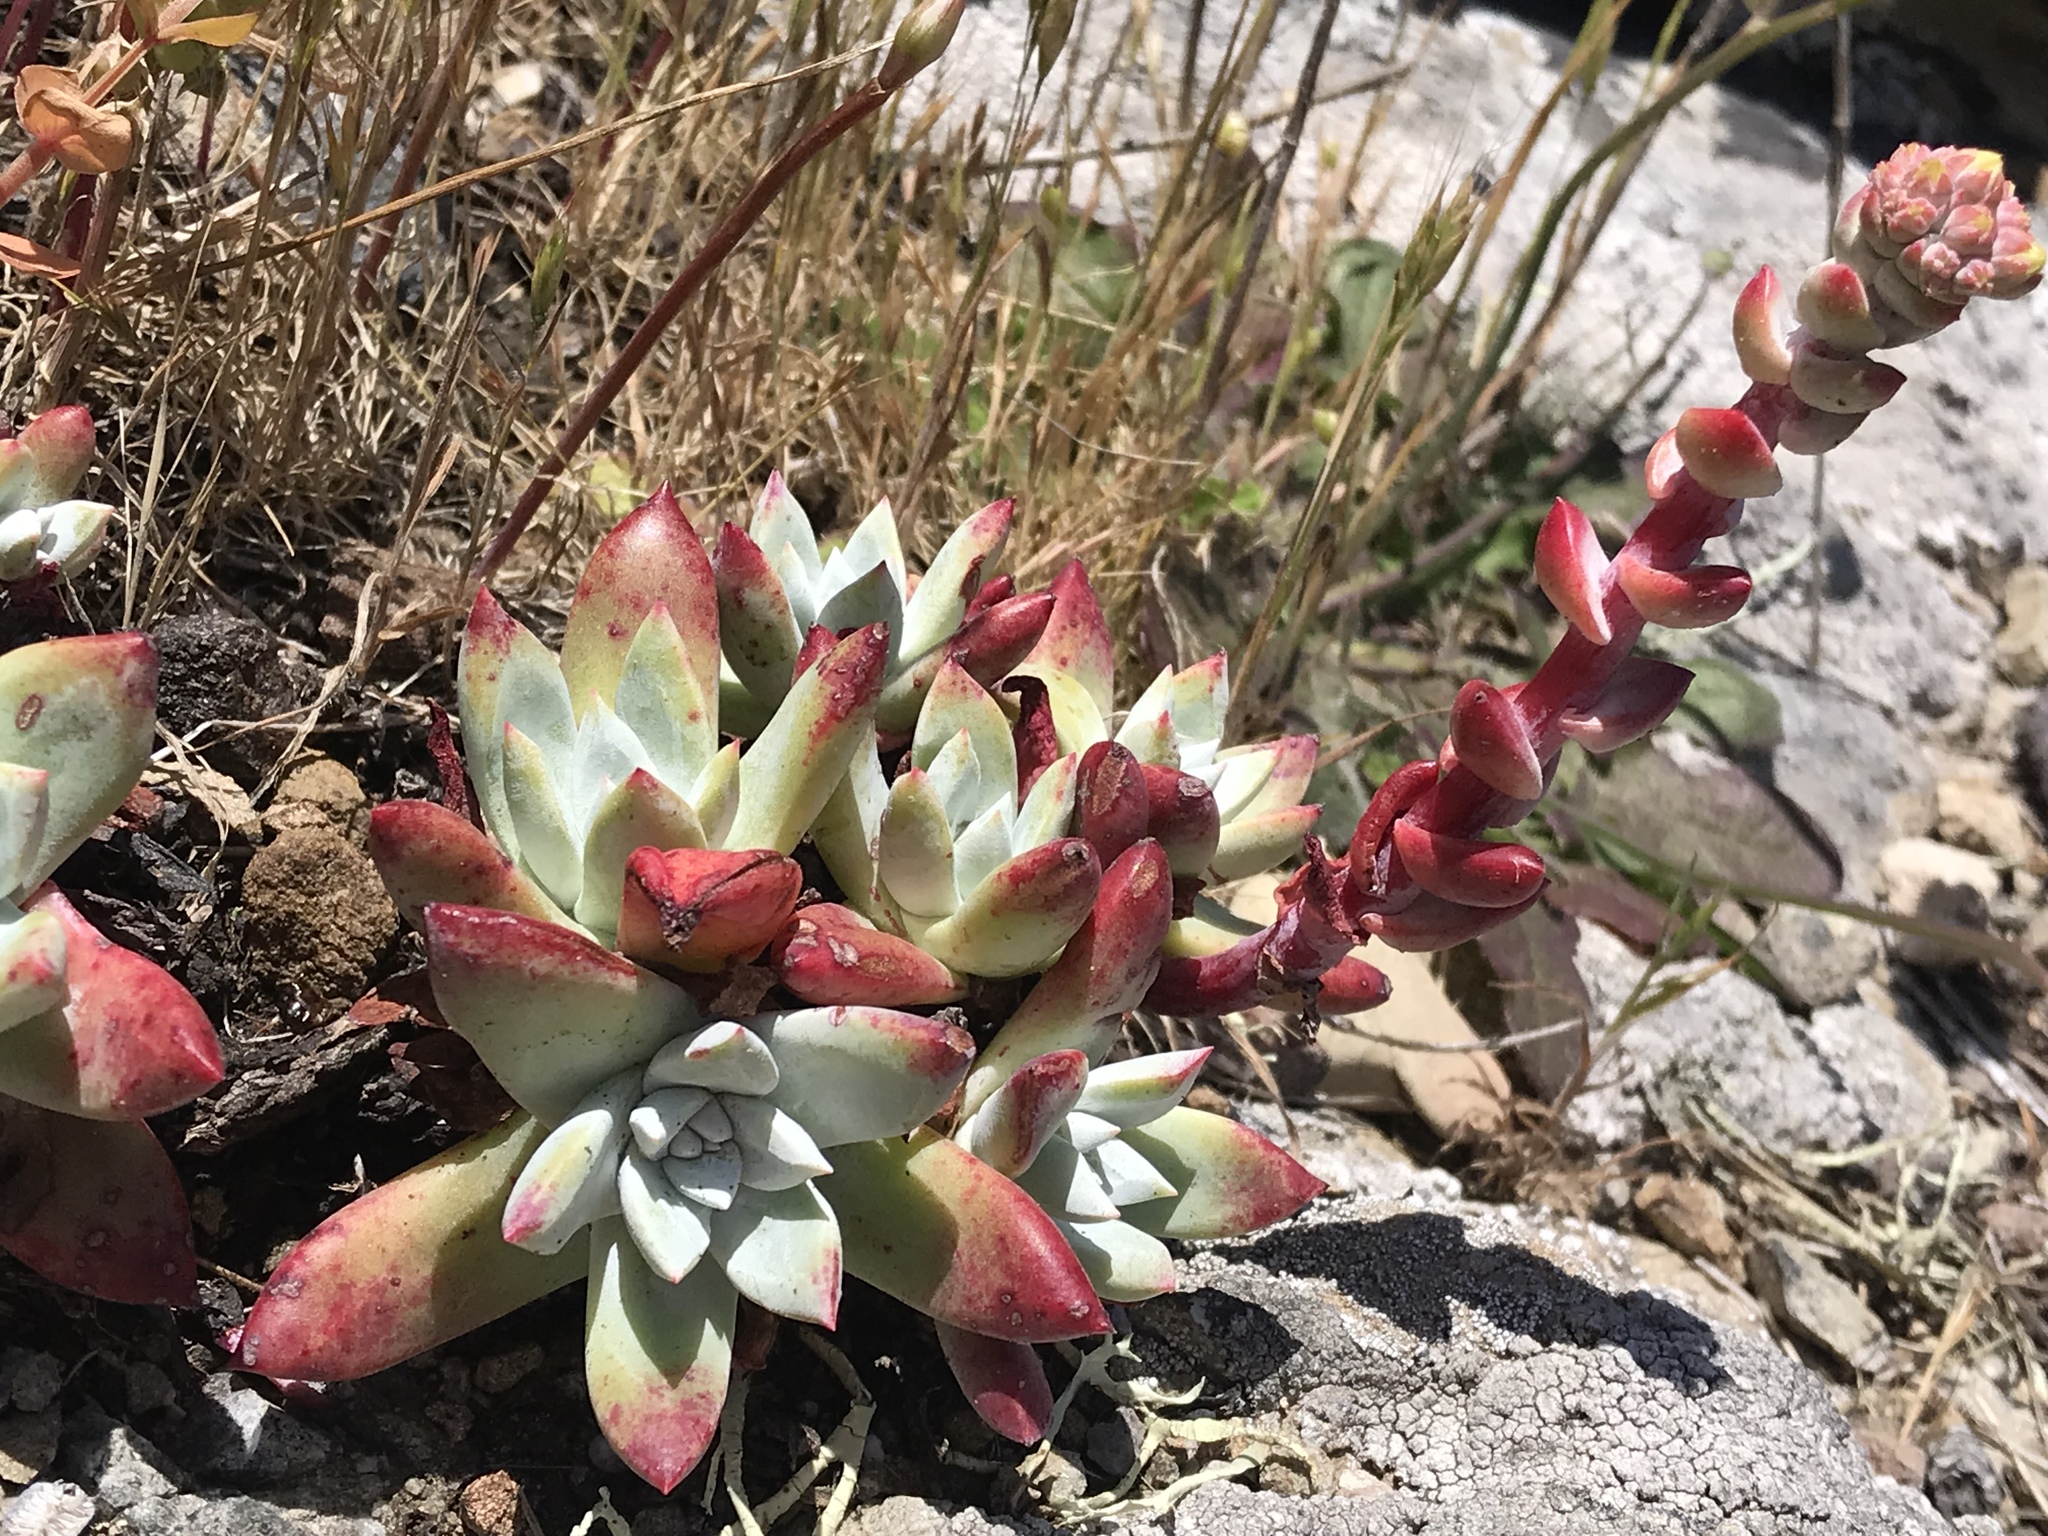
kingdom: Plantae
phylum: Tracheophyta
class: Magnoliopsida
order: Saxifragales
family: Crassulaceae
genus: Dudleya
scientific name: Dudleya farinosa
